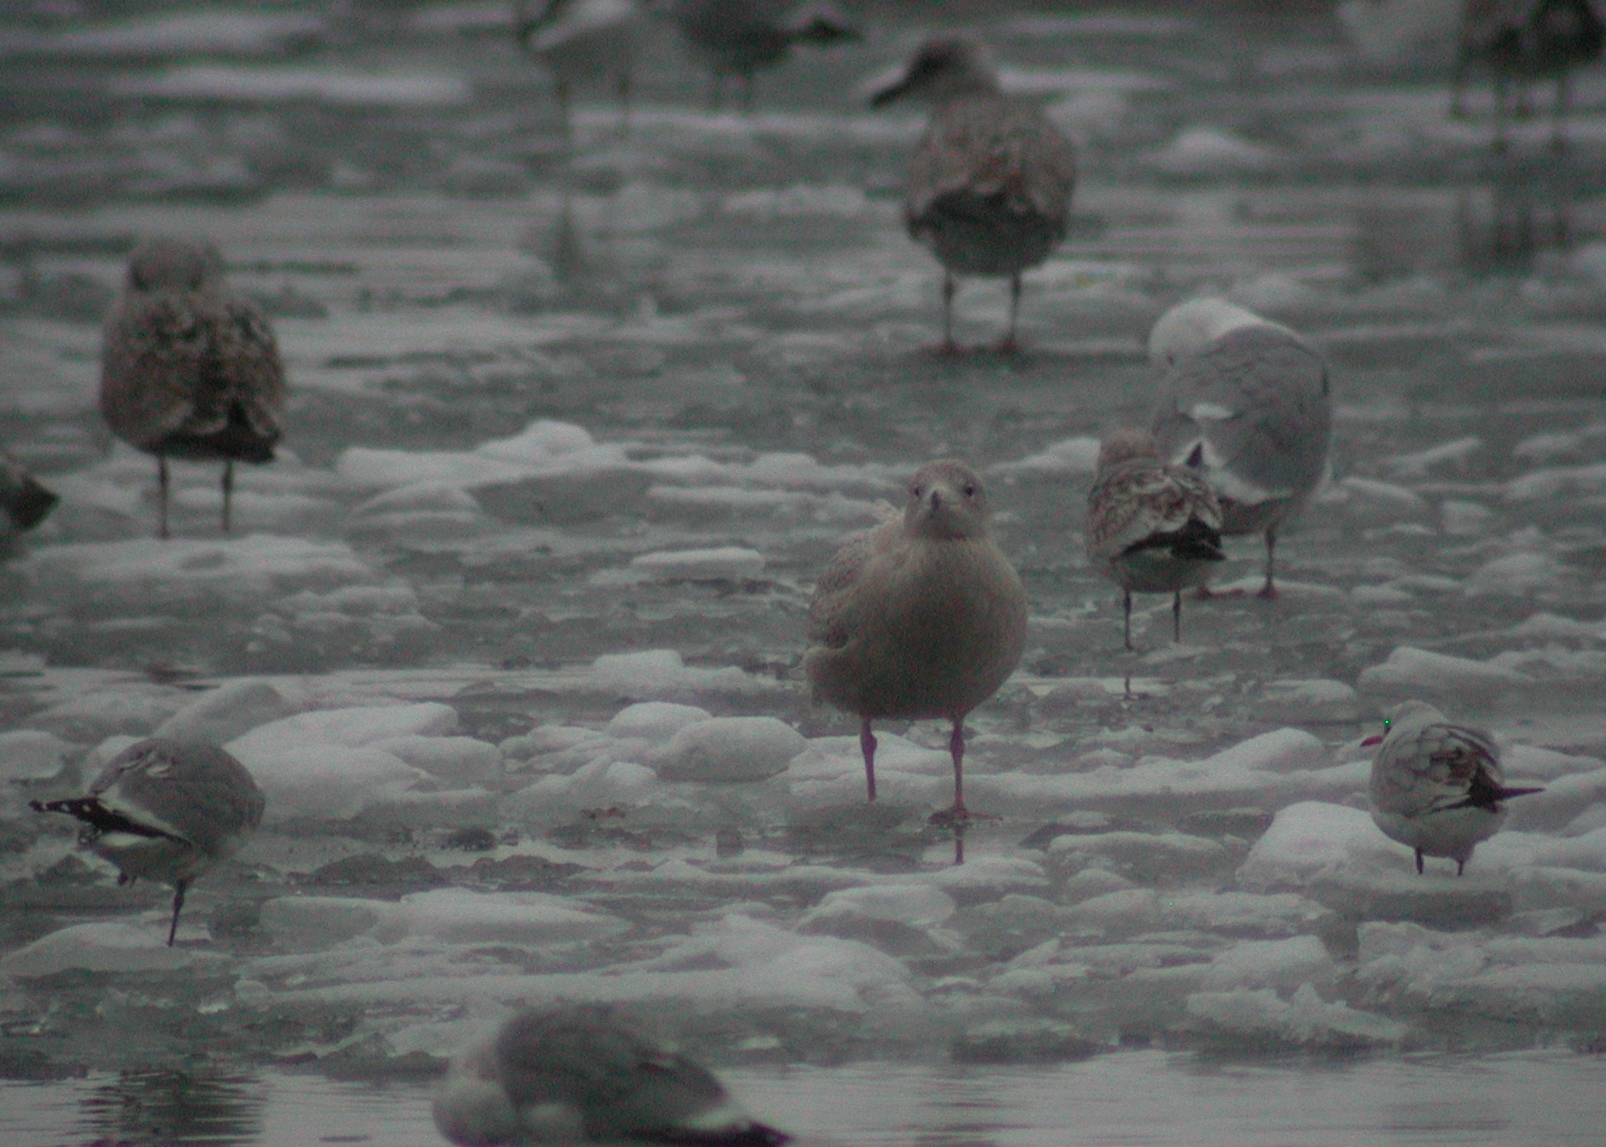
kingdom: Animalia
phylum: Chordata
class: Aves
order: Charadriiformes
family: Laridae
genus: Larus
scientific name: Larus hyperboreus
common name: Glaucous gull
